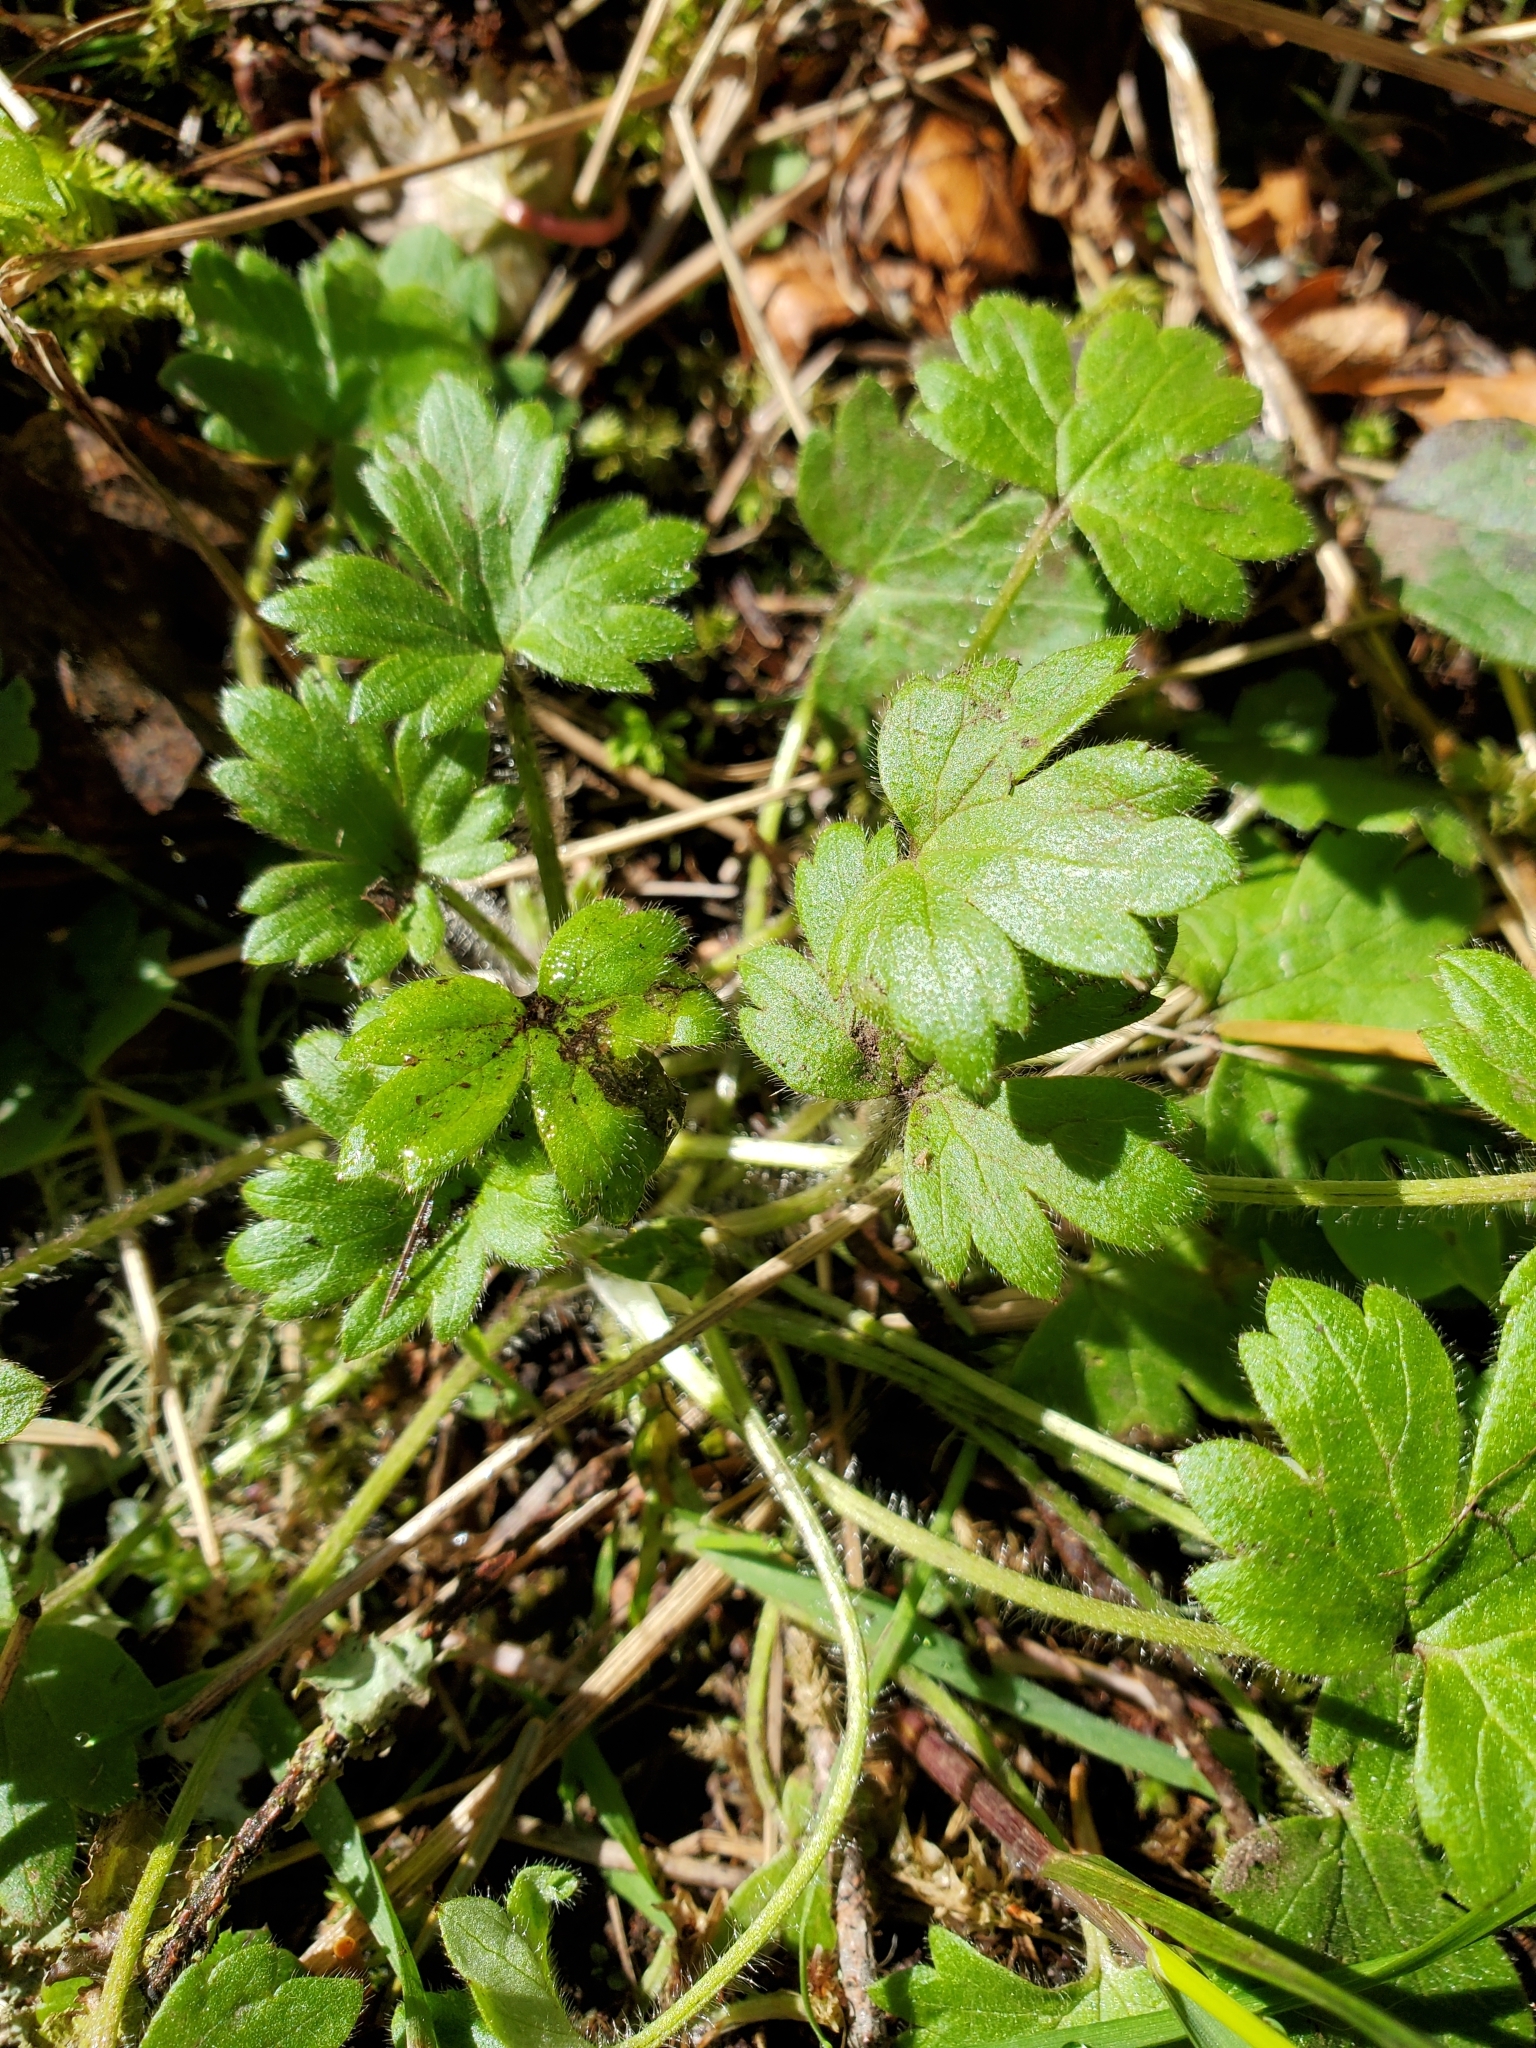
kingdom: Plantae
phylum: Tracheophyta
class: Magnoliopsida
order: Ranunculales
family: Ranunculaceae
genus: Ranunculus
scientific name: Ranunculus occidentalis
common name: Western buttercup
